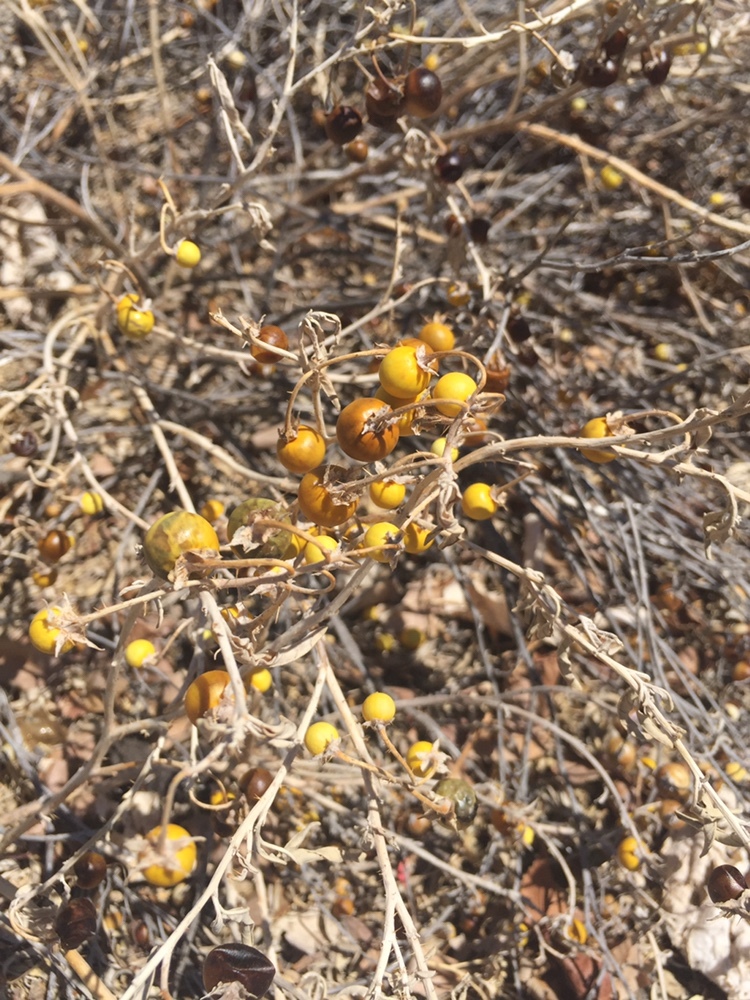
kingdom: Plantae
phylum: Tracheophyta
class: Magnoliopsida
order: Solanales
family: Solanaceae
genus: Solanum
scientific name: Solanum elaeagnifolium
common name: Silverleaf nightshade
